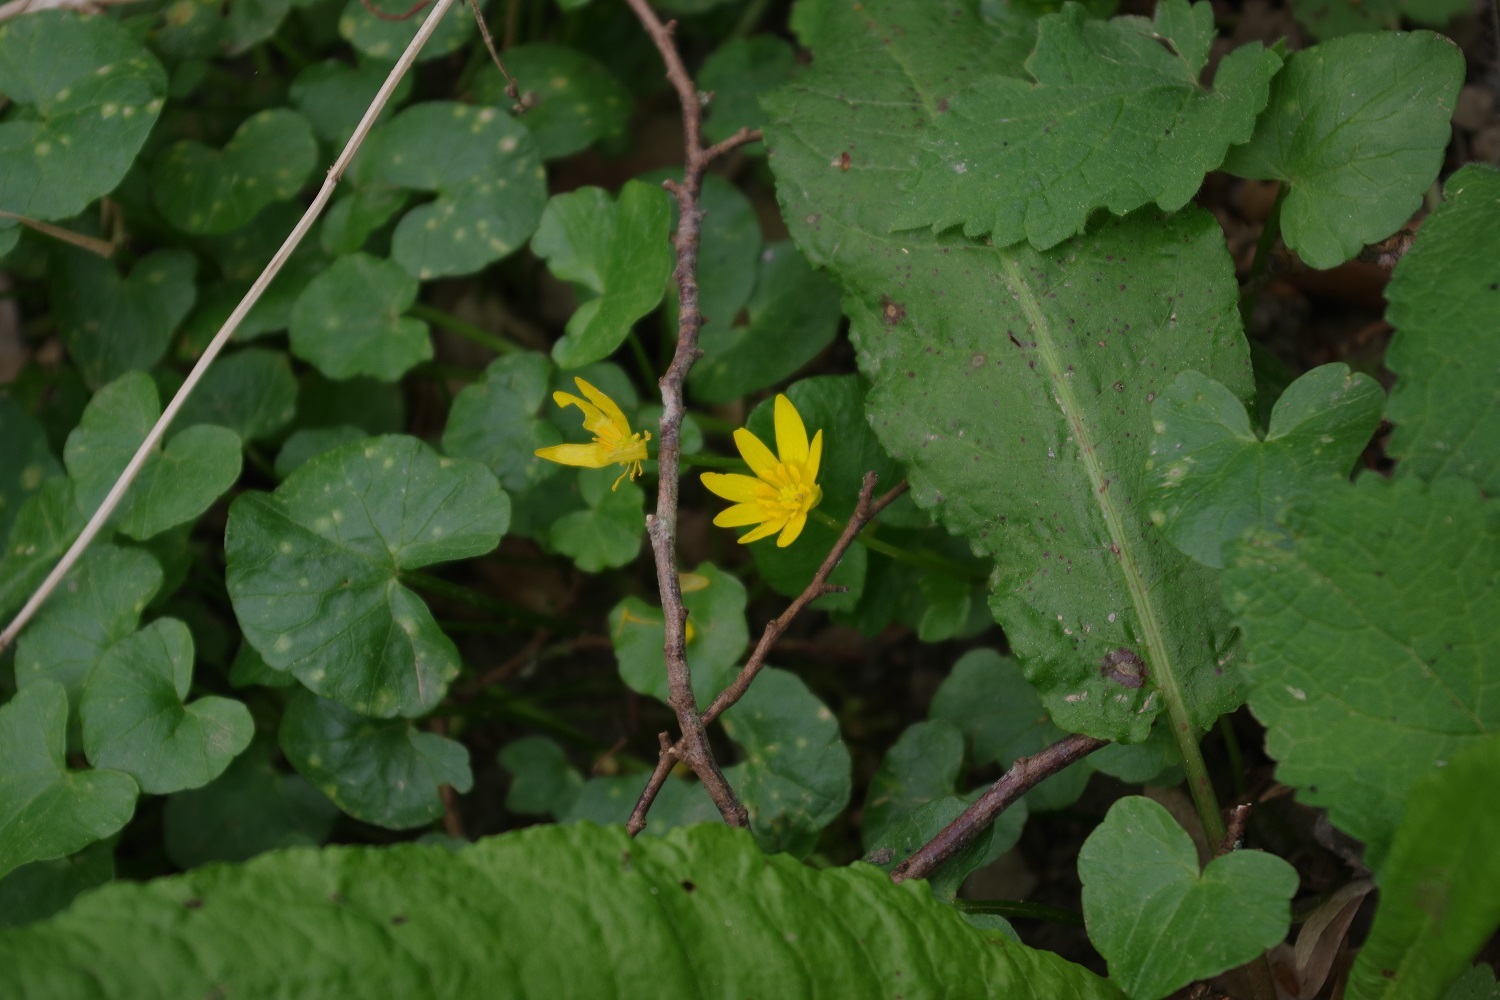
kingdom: Plantae
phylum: Tracheophyta
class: Magnoliopsida
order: Ranunculales
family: Ranunculaceae
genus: Ficaria
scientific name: Ficaria verna
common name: Lesser celandine
